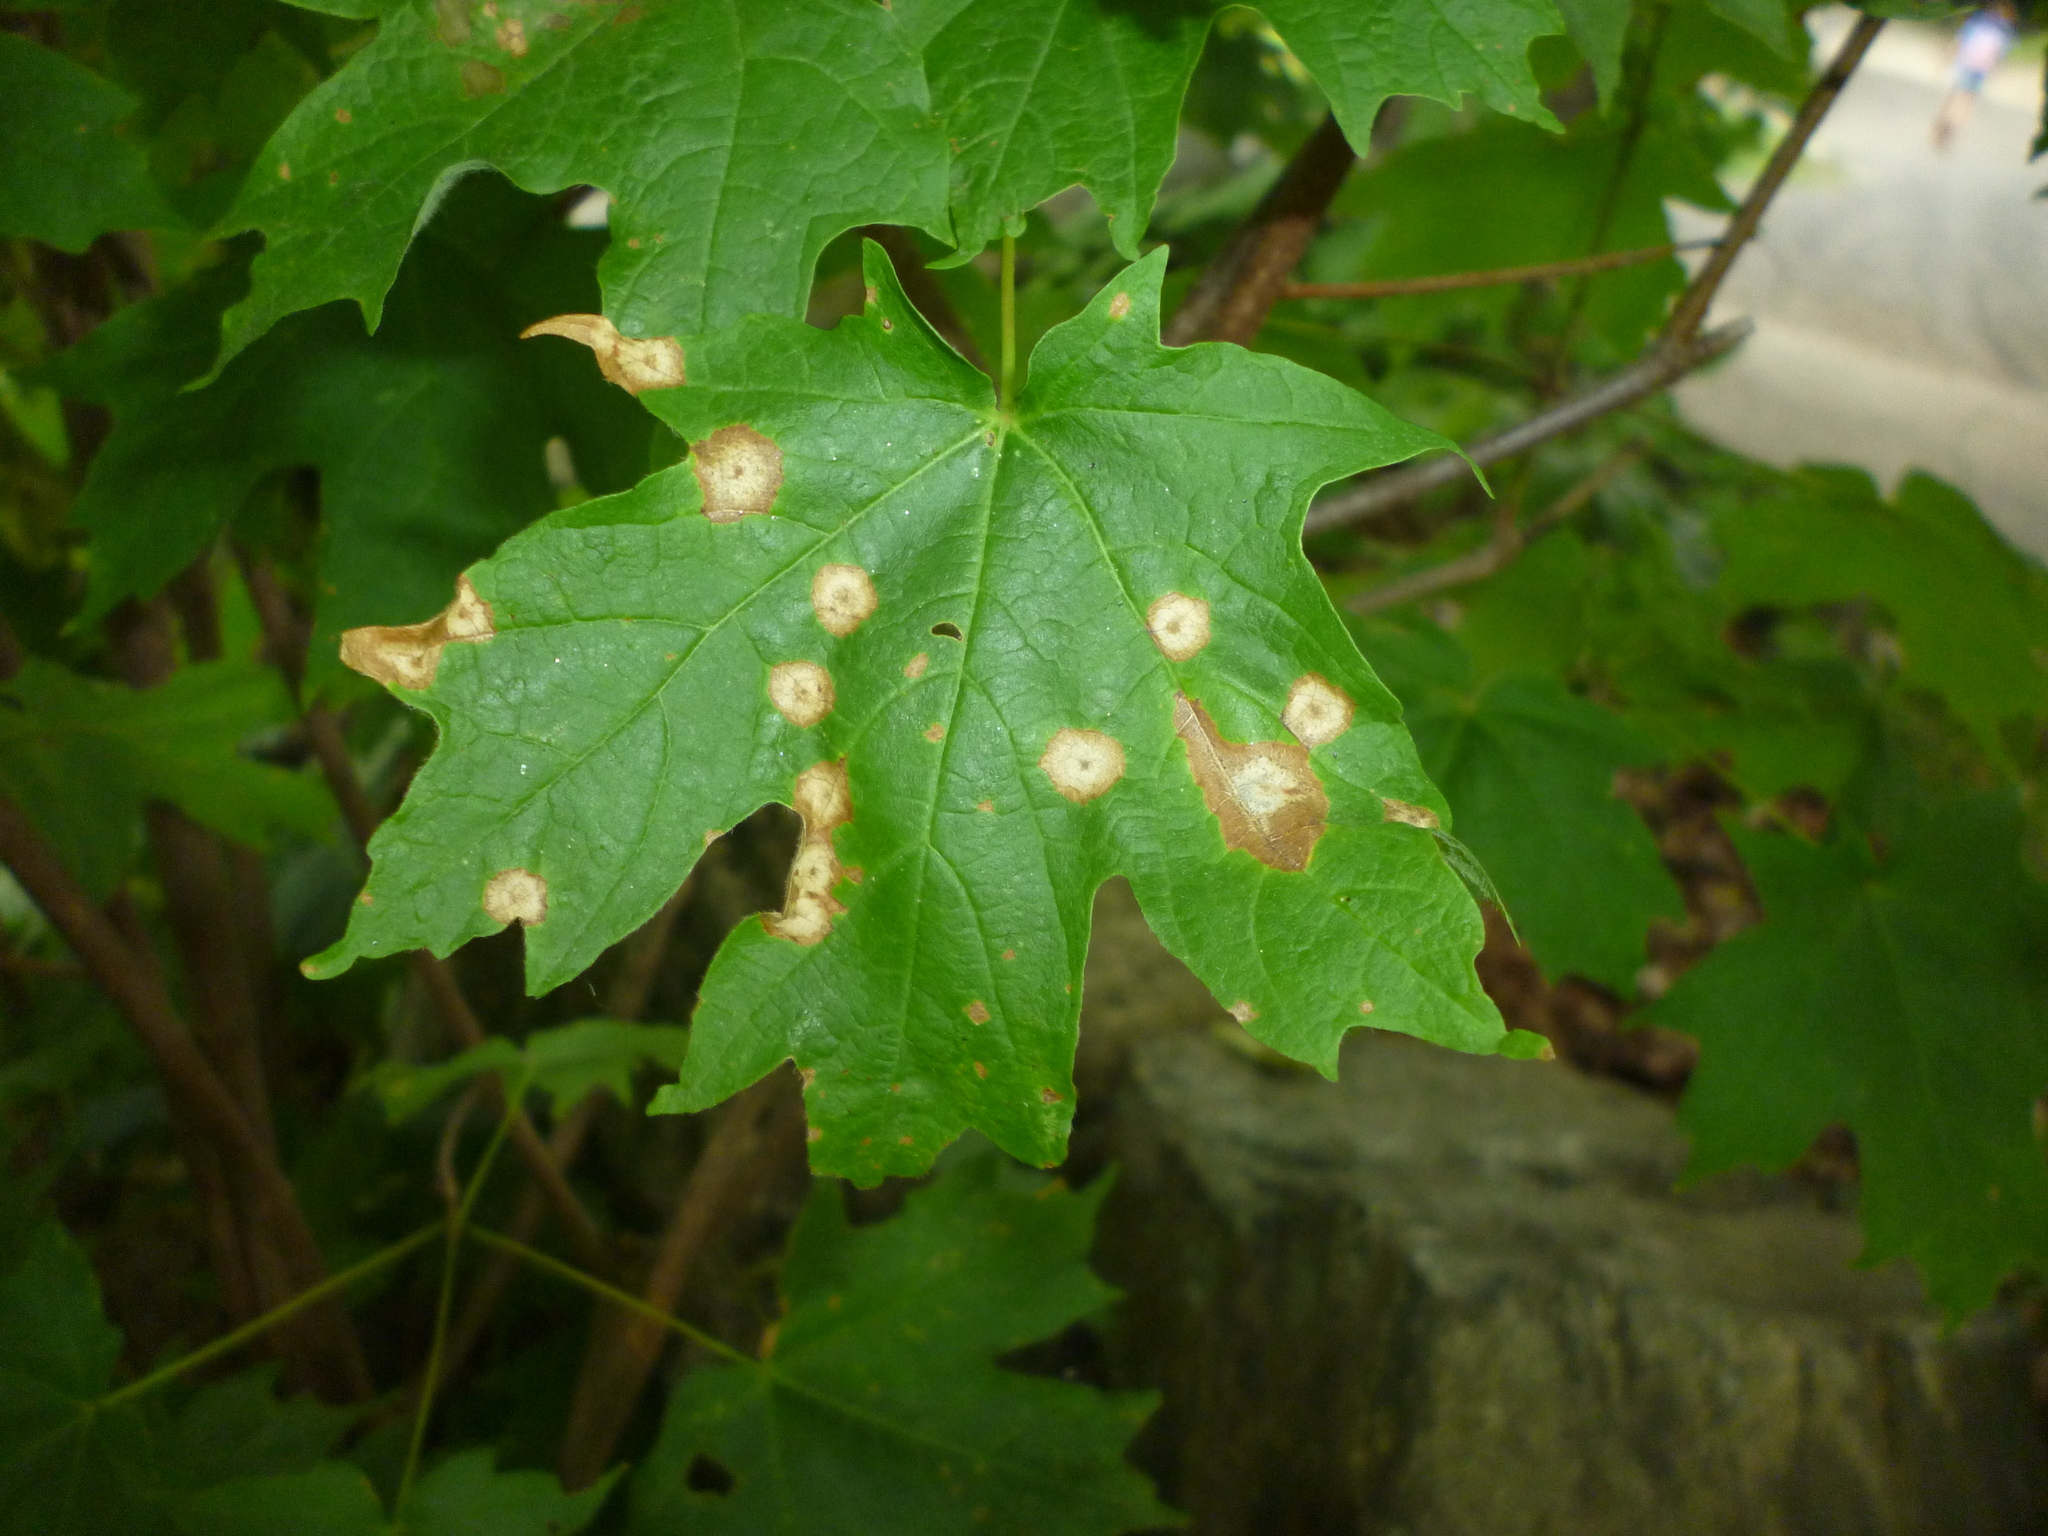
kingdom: Plantae
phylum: Tracheophyta
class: Magnoliopsida
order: Sapindales
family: Sapindaceae
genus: Acer
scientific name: Acer saccharum
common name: Sugar maple
